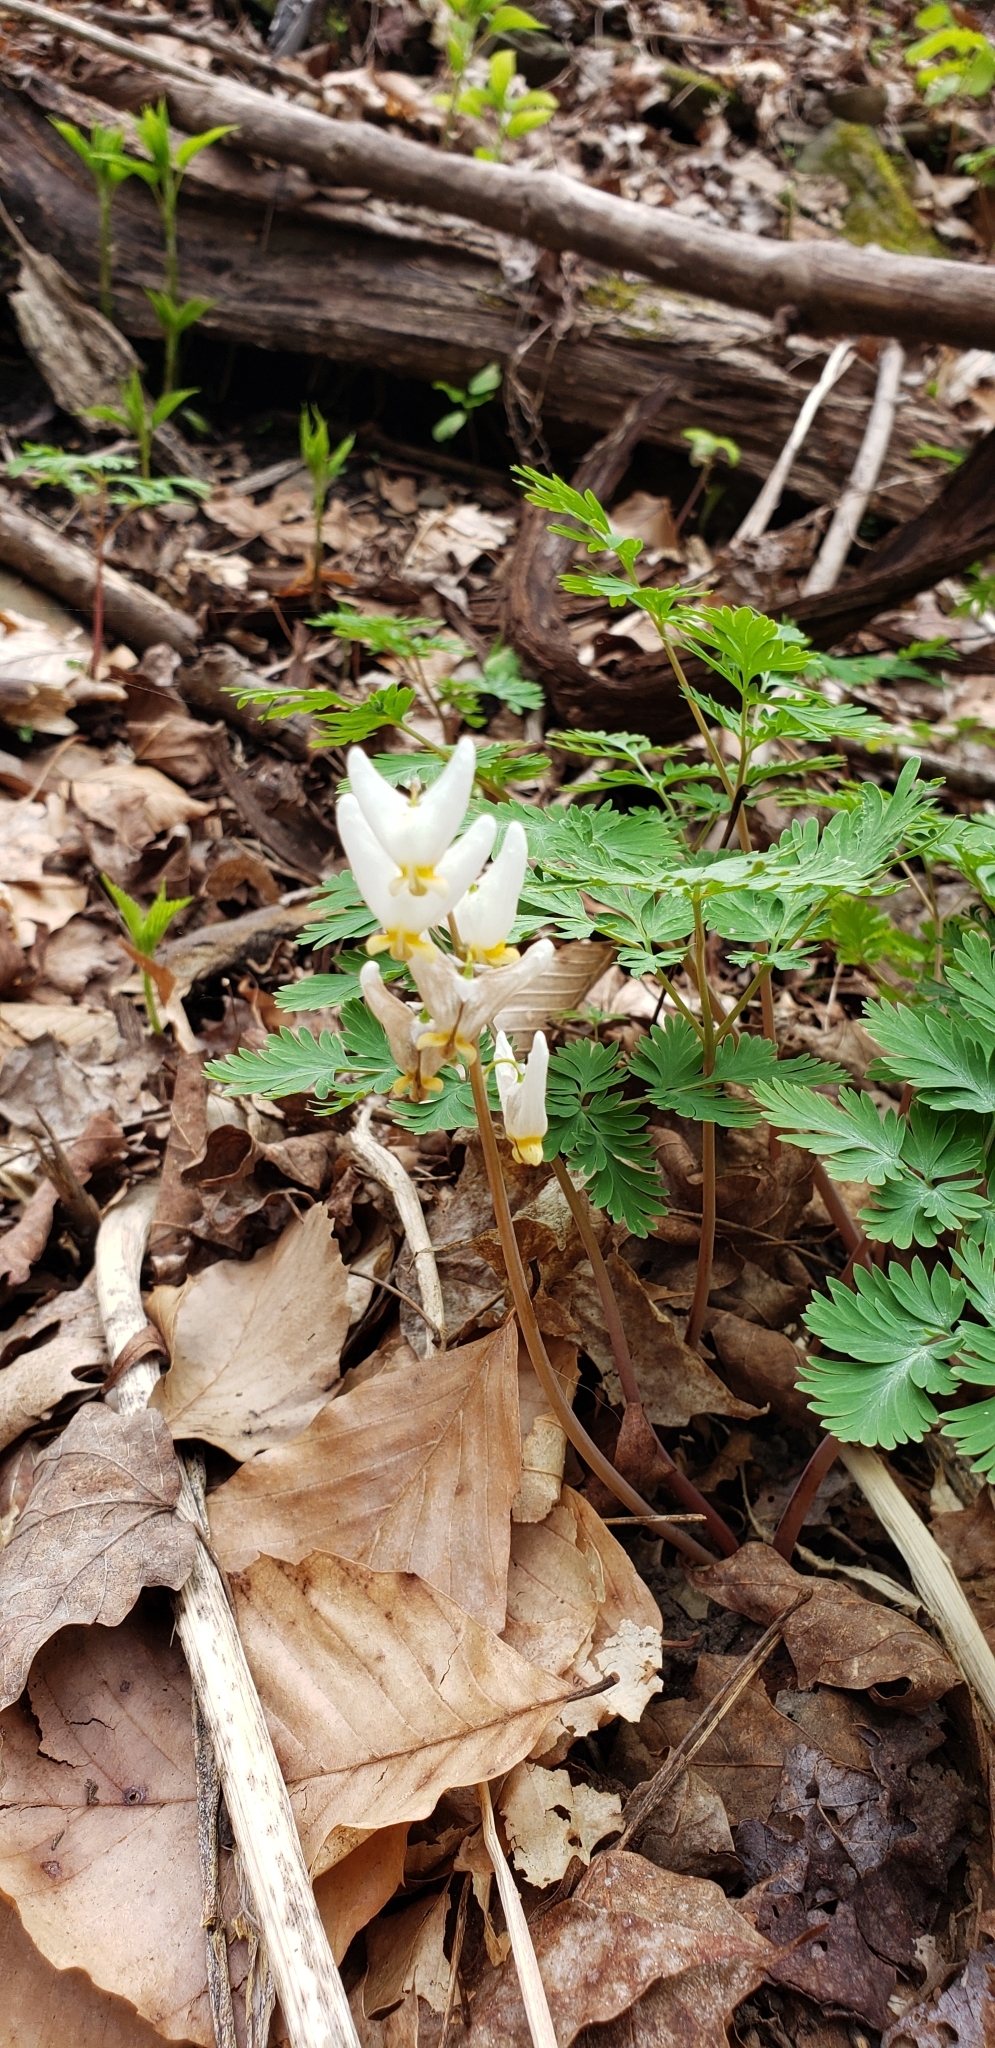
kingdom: Plantae
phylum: Tracheophyta
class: Magnoliopsida
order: Ranunculales
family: Papaveraceae
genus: Dicentra
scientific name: Dicentra cucullaria
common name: Dutchman's breeches
